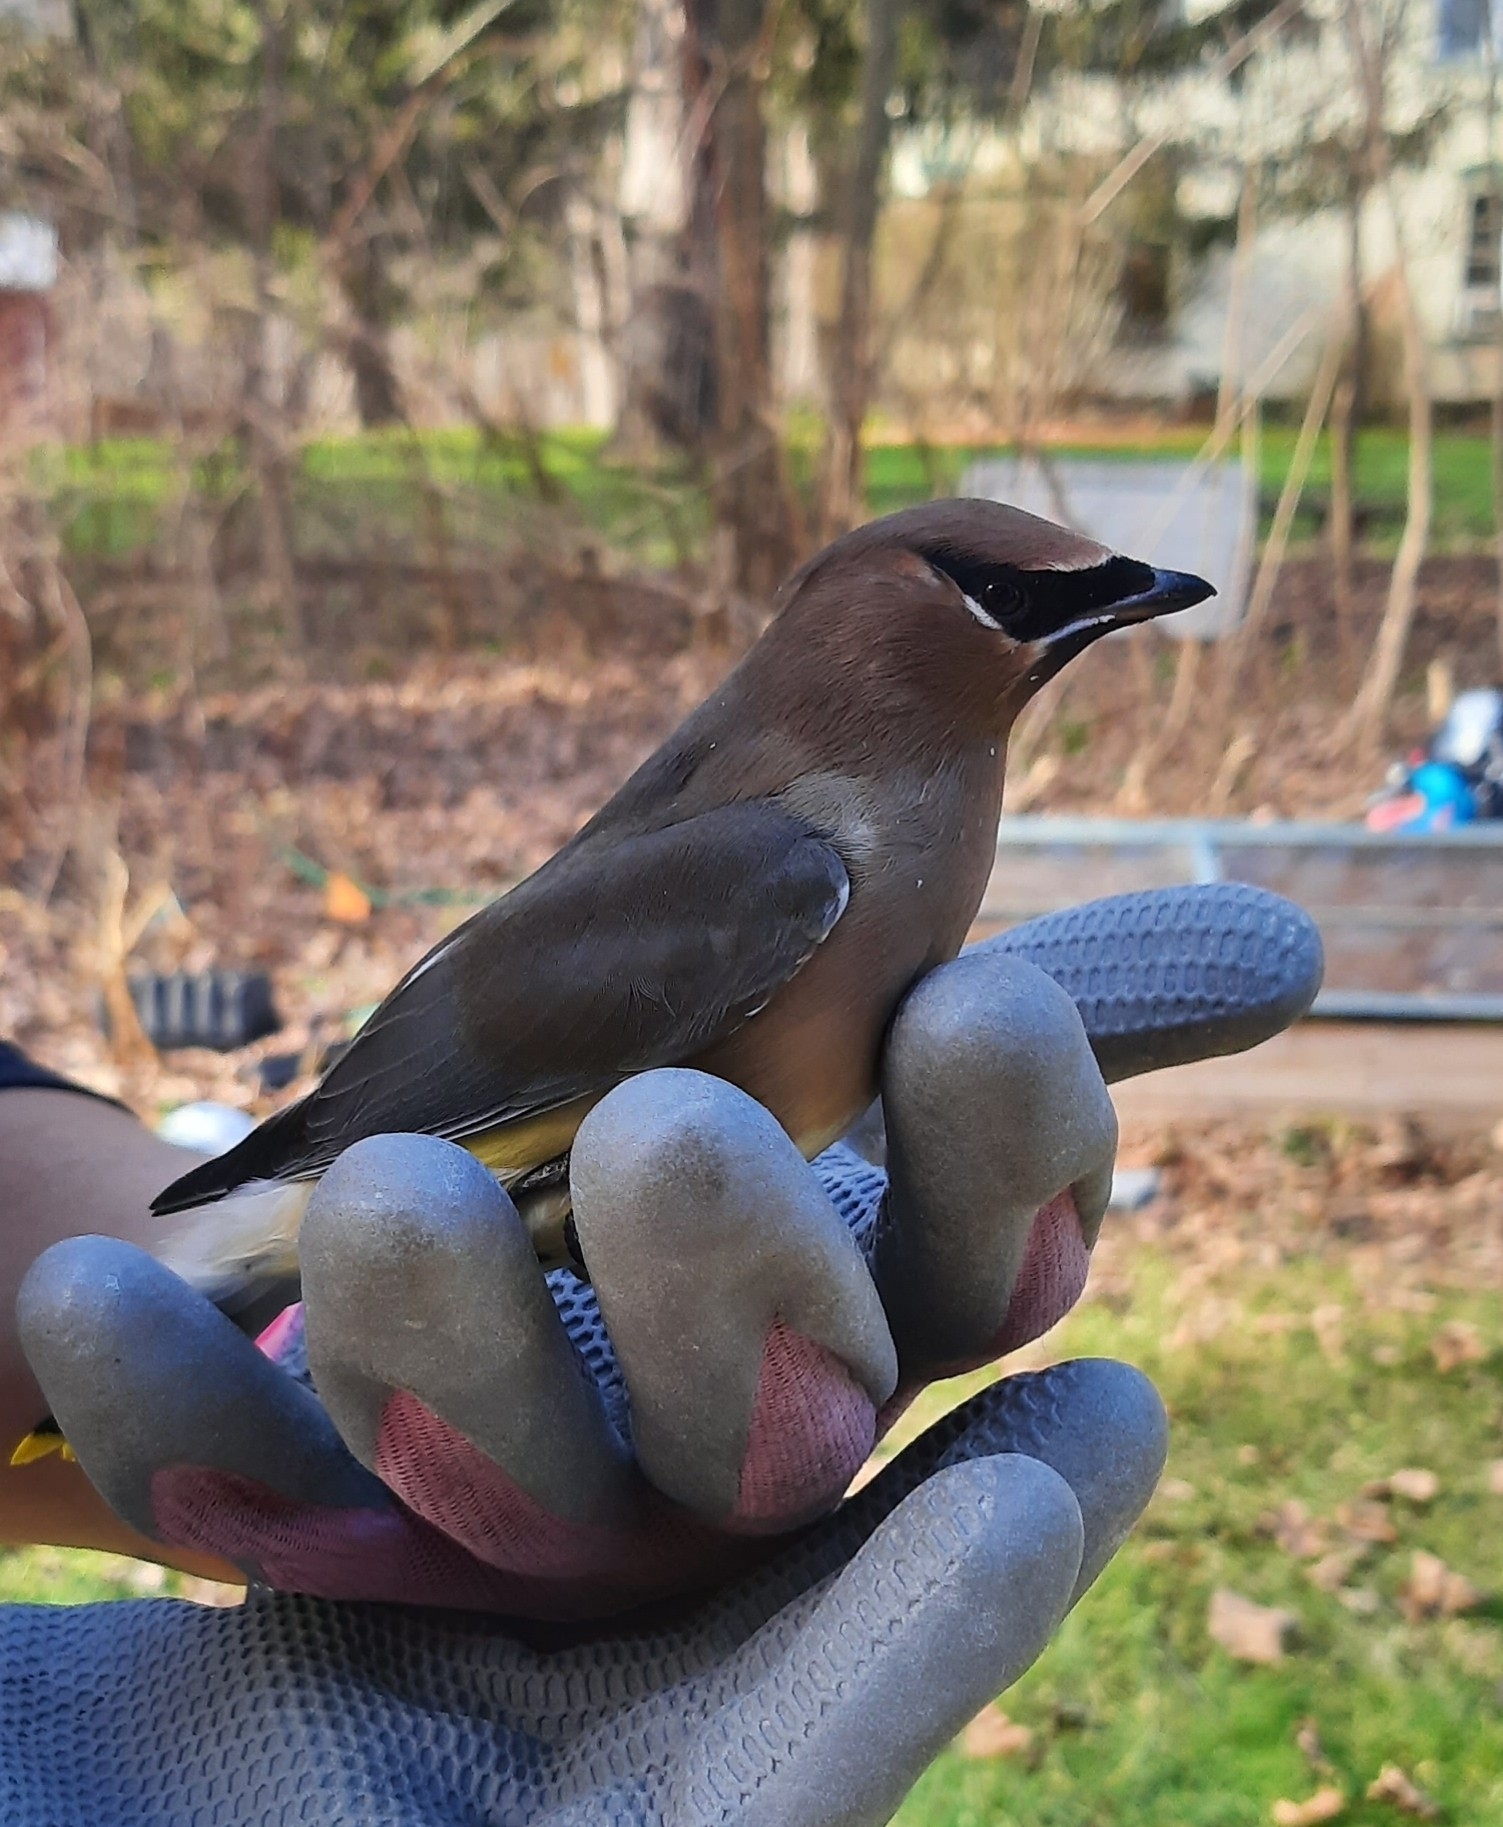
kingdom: Animalia
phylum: Chordata
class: Aves
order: Passeriformes
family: Bombycillidae
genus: Bombycilla
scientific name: Bombycilla cedrorum
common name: Cedar waxwing
